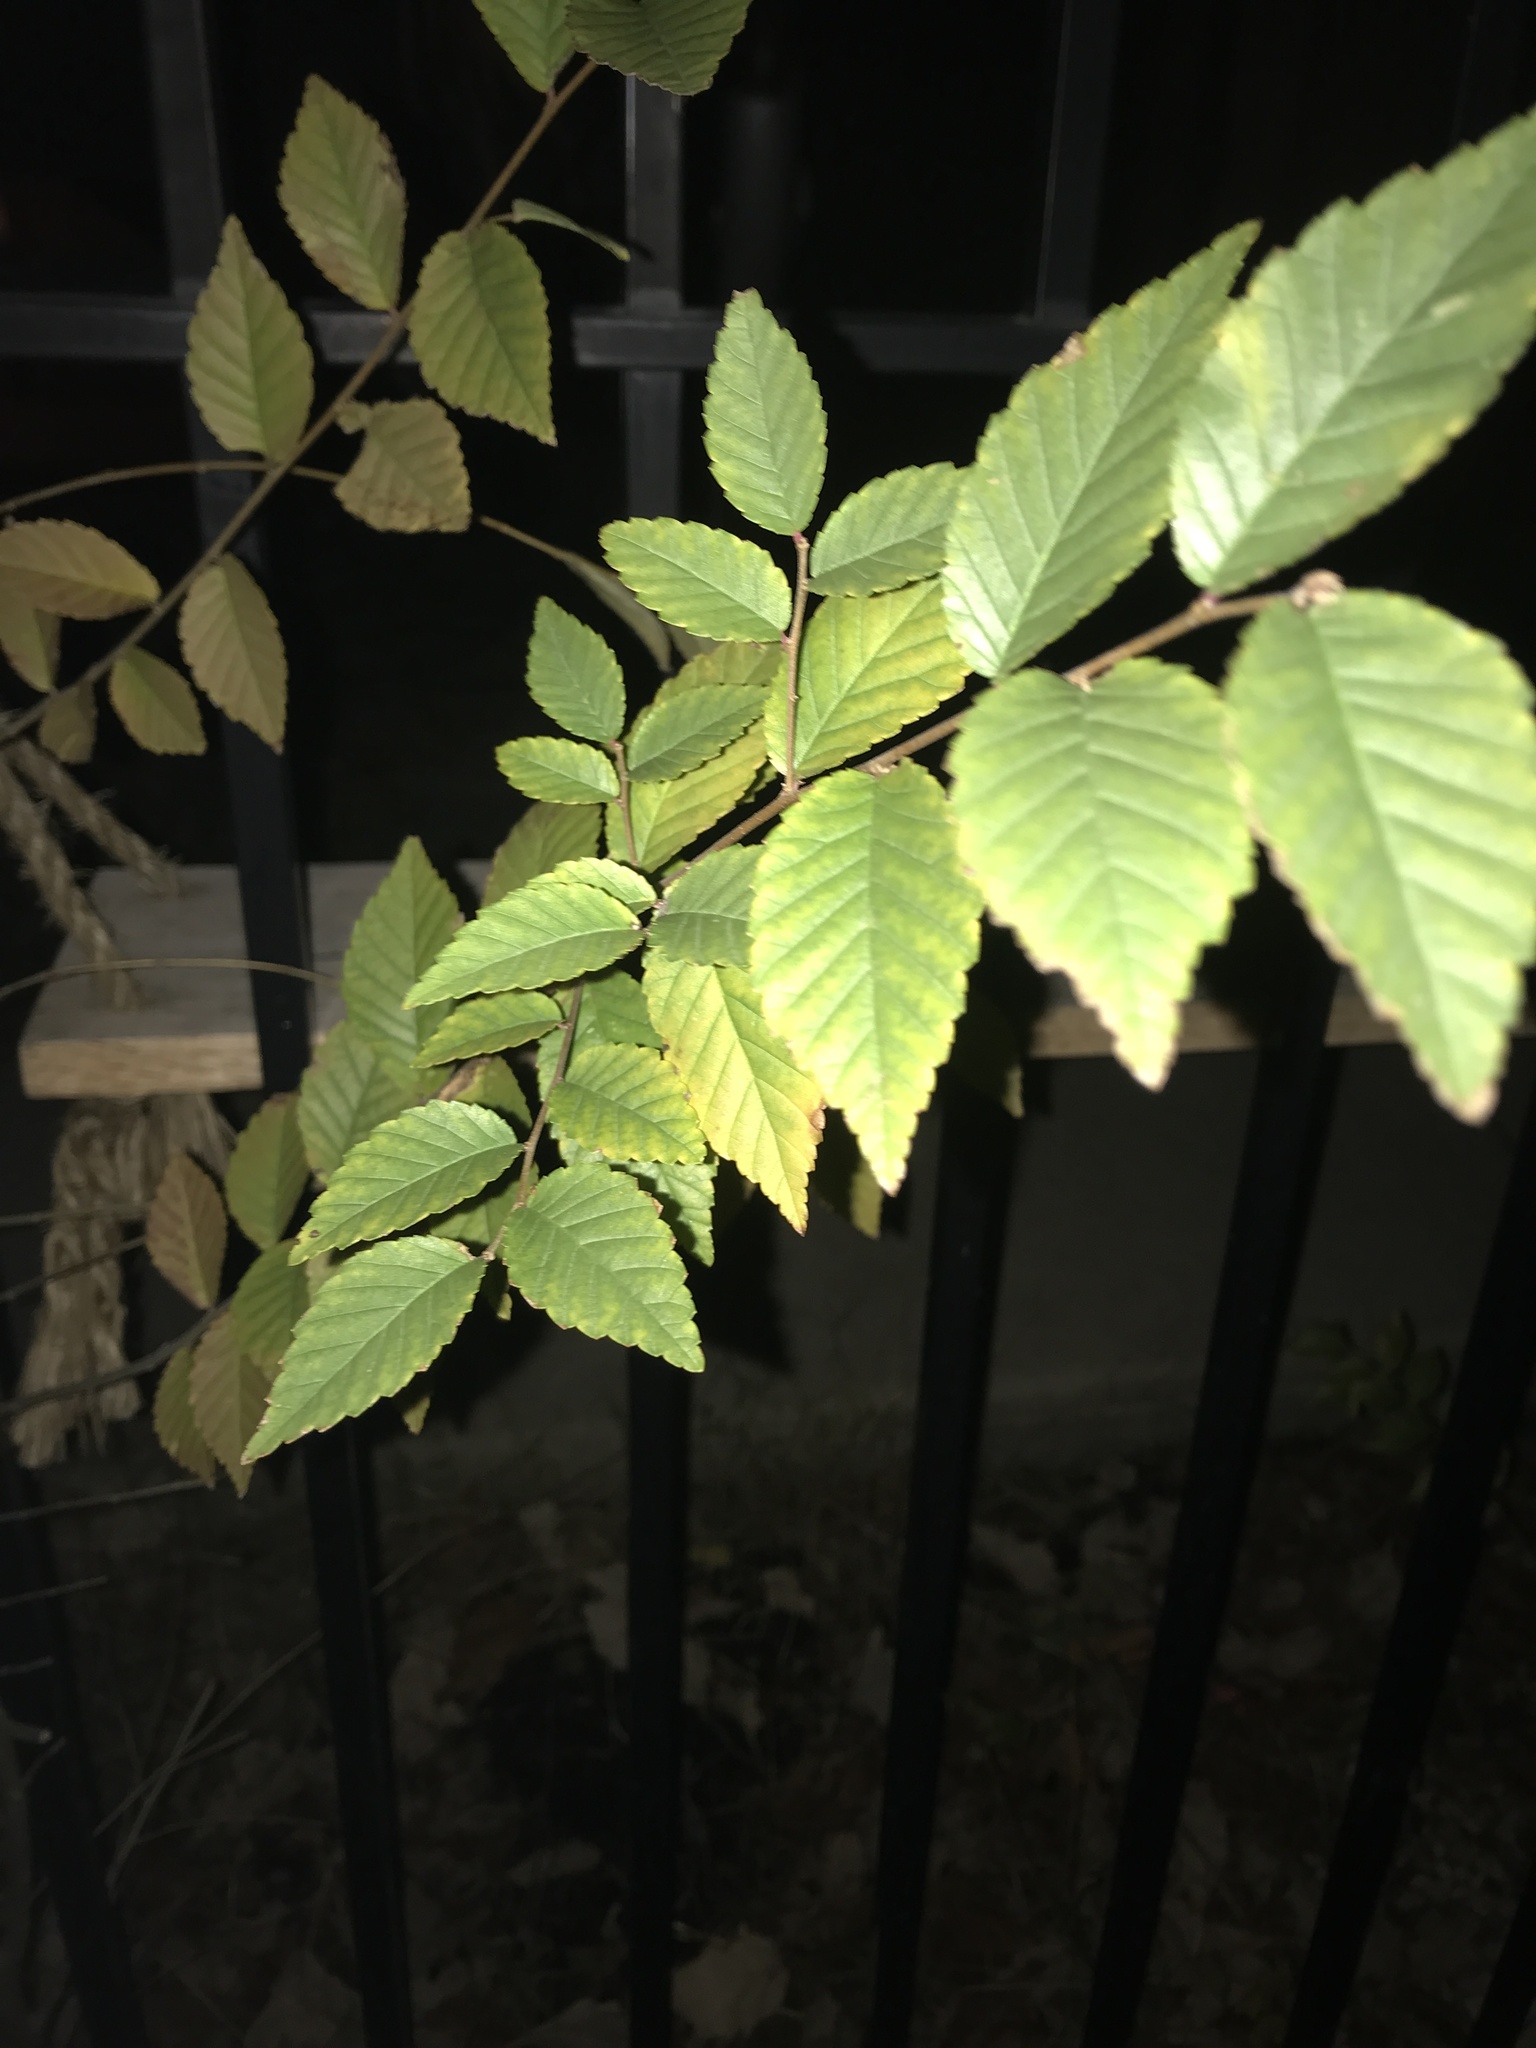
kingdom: Plantae
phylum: Tracheophyta
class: Magnoliopsida
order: Rosales
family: Ulmaceae
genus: Ulmus
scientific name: Ulmus pumila
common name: Siberian elm
